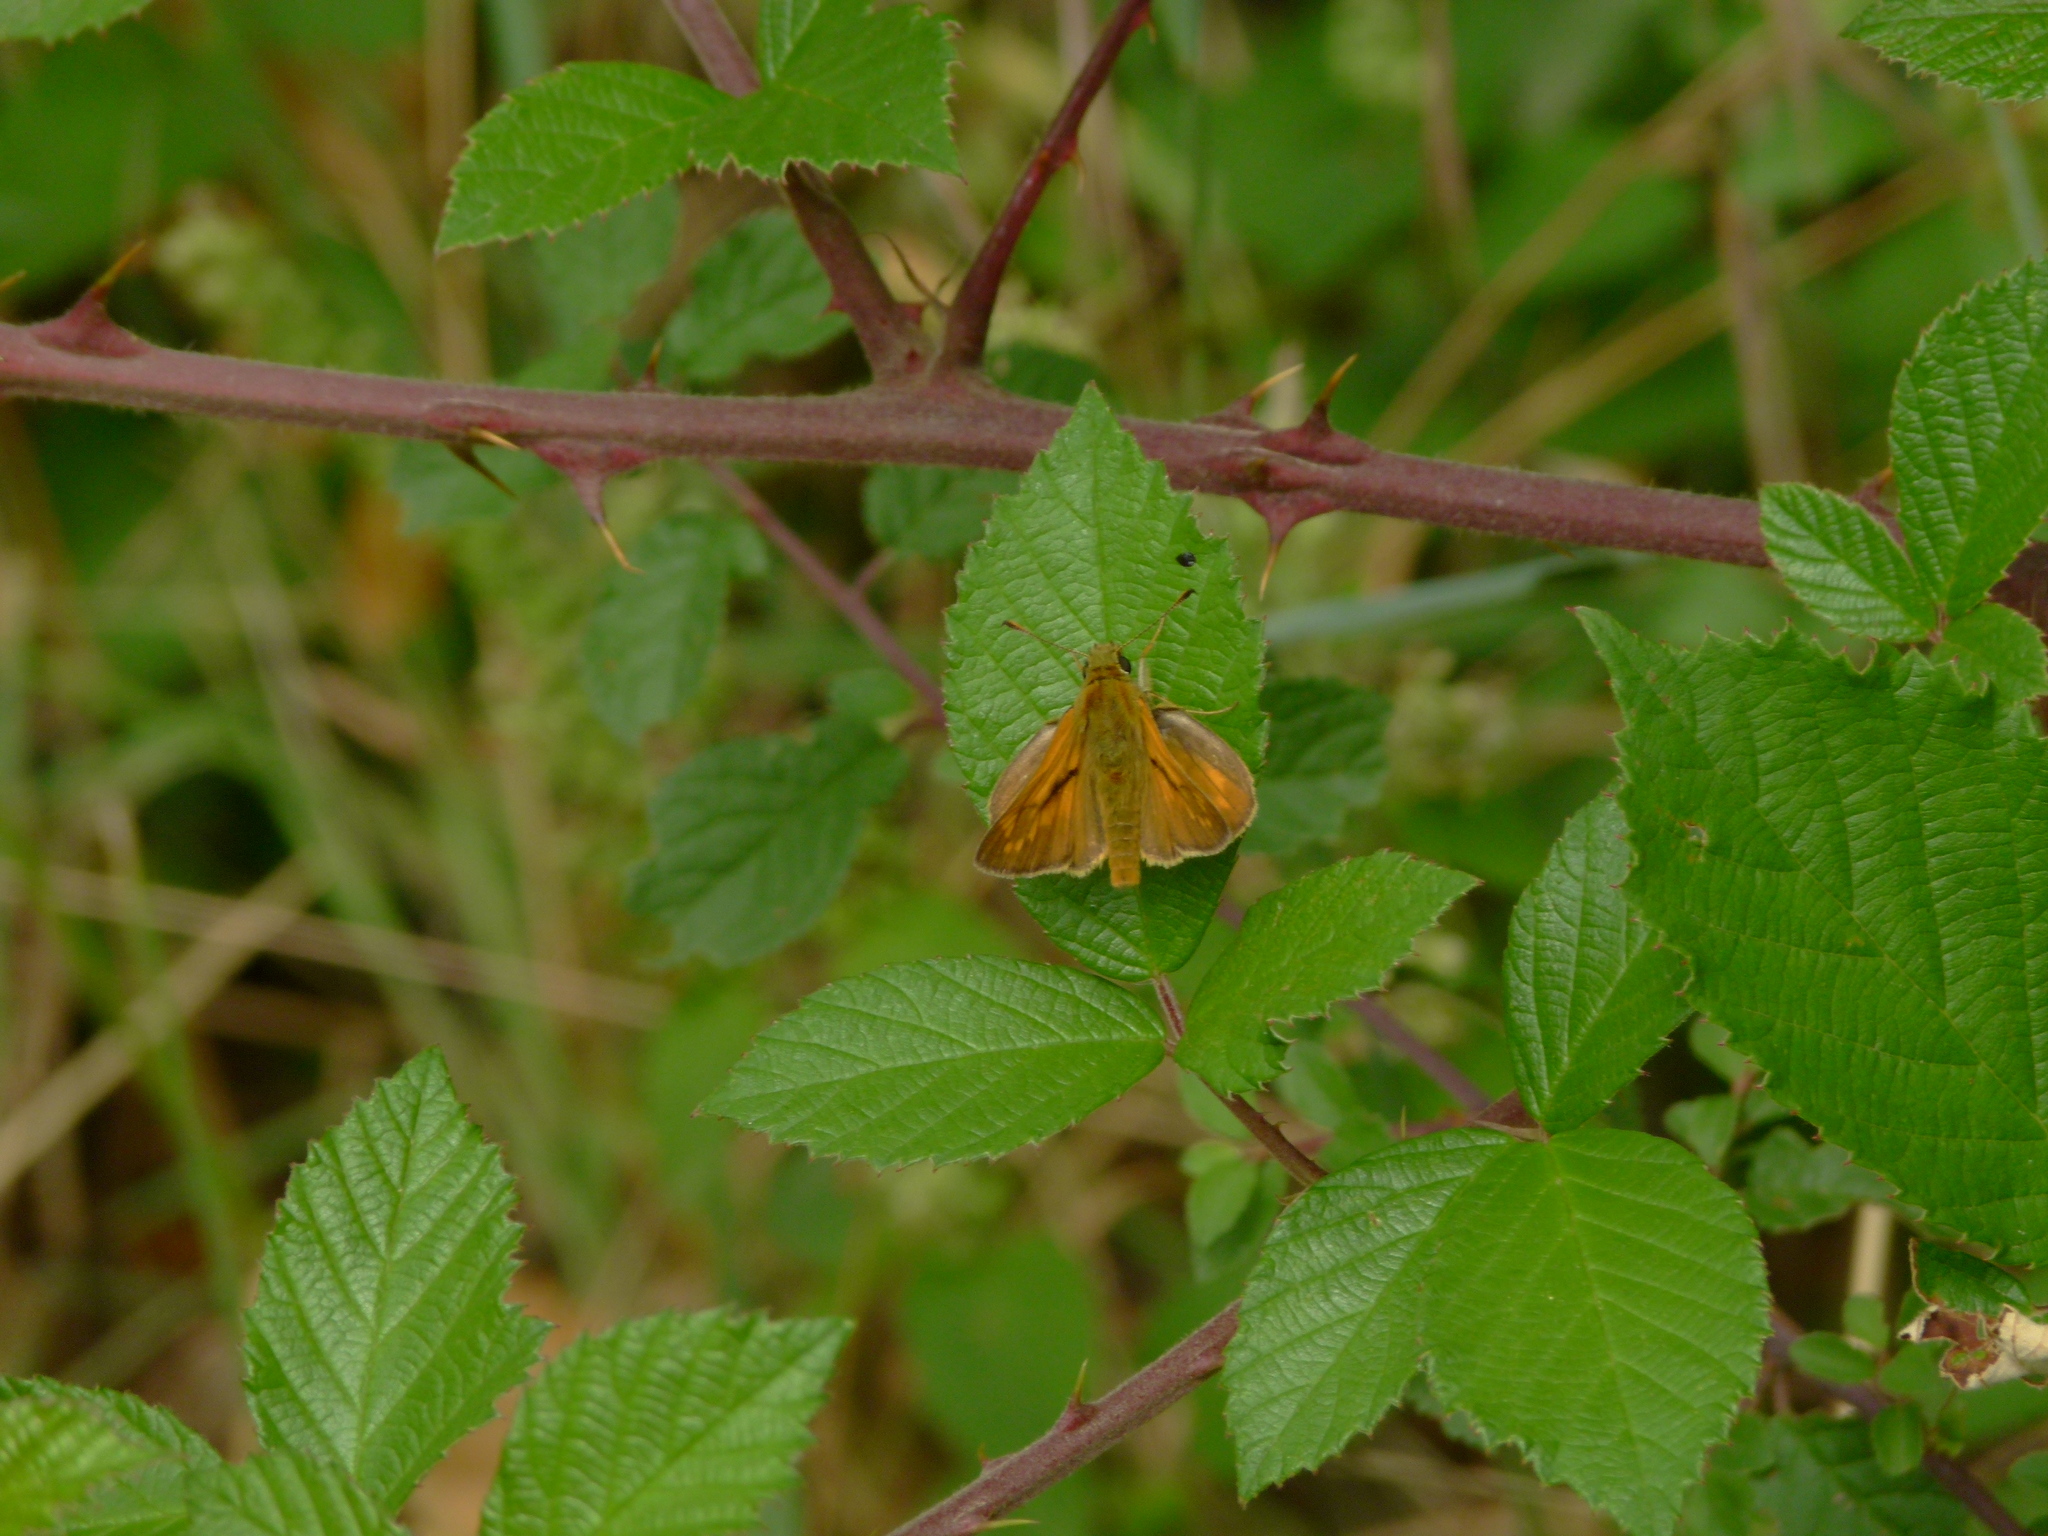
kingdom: Animalia
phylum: Arthropoda
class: Insecta
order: Lepidoptera
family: Hesperiidae
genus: Ochlodes
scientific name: Ochlodes venata
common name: Large skipper
